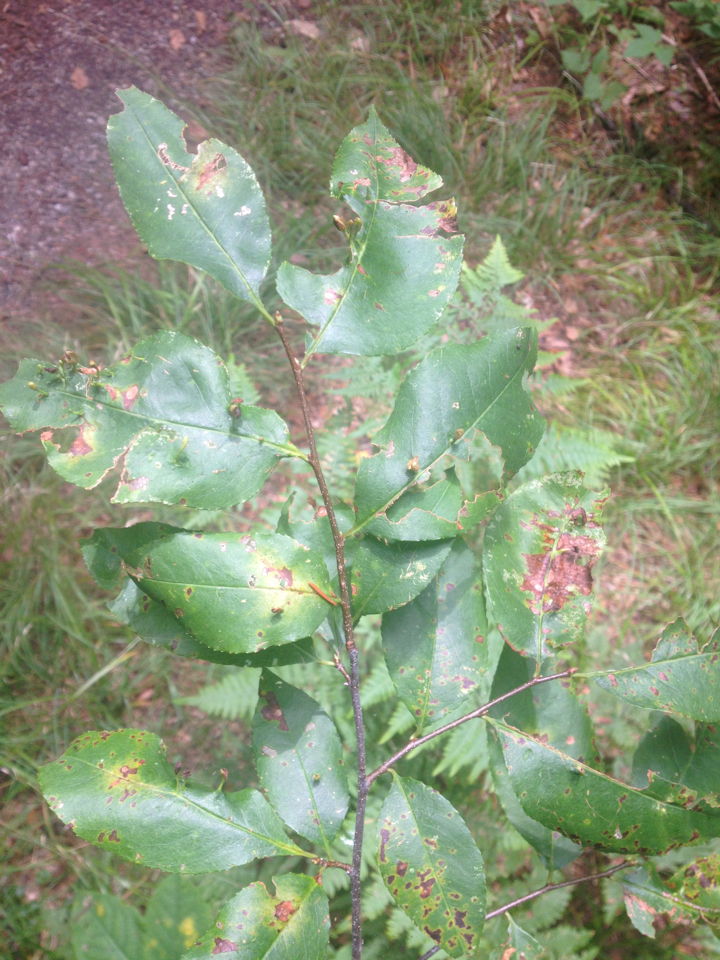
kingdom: Plantae
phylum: Tracheophyta
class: Magnoliopsida
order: Rosales
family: Rosaceae
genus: Prunus
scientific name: Prunus serotina
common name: Black cherry
